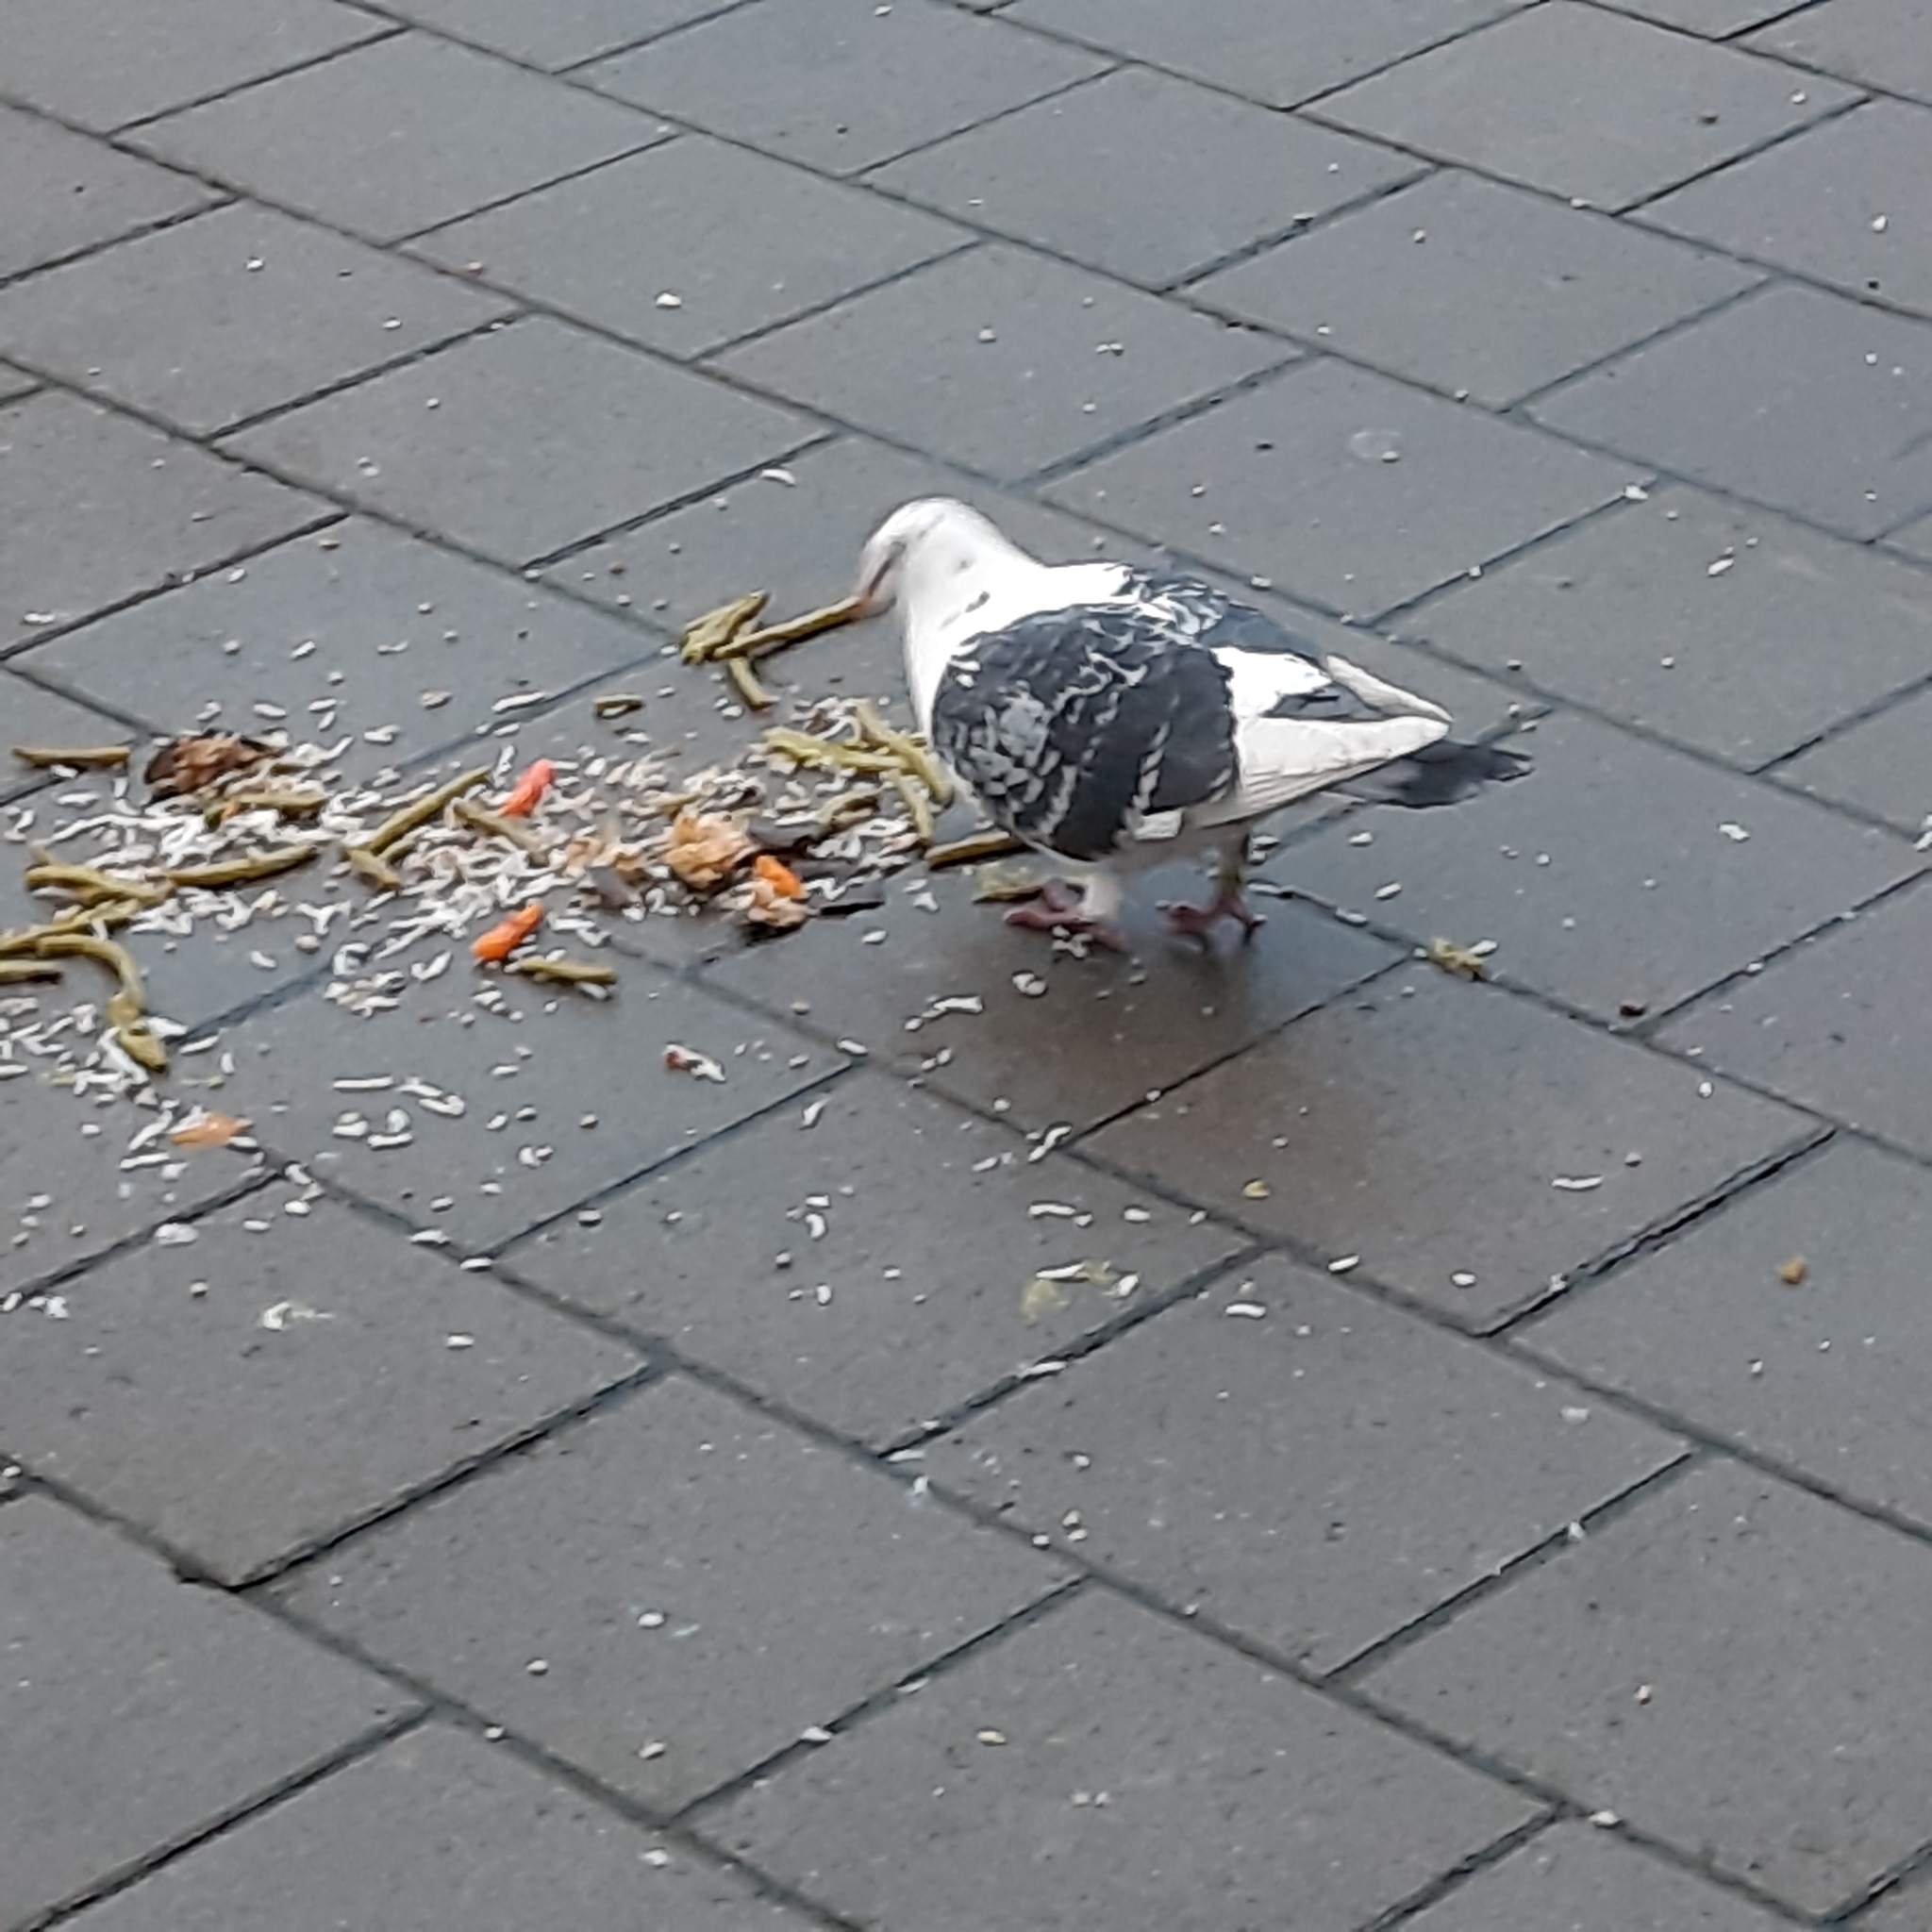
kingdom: Animalia
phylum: Chordata
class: Aves
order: Columbiformes
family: Columbidae
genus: Columba
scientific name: Columba livia
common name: Rock pigeon
